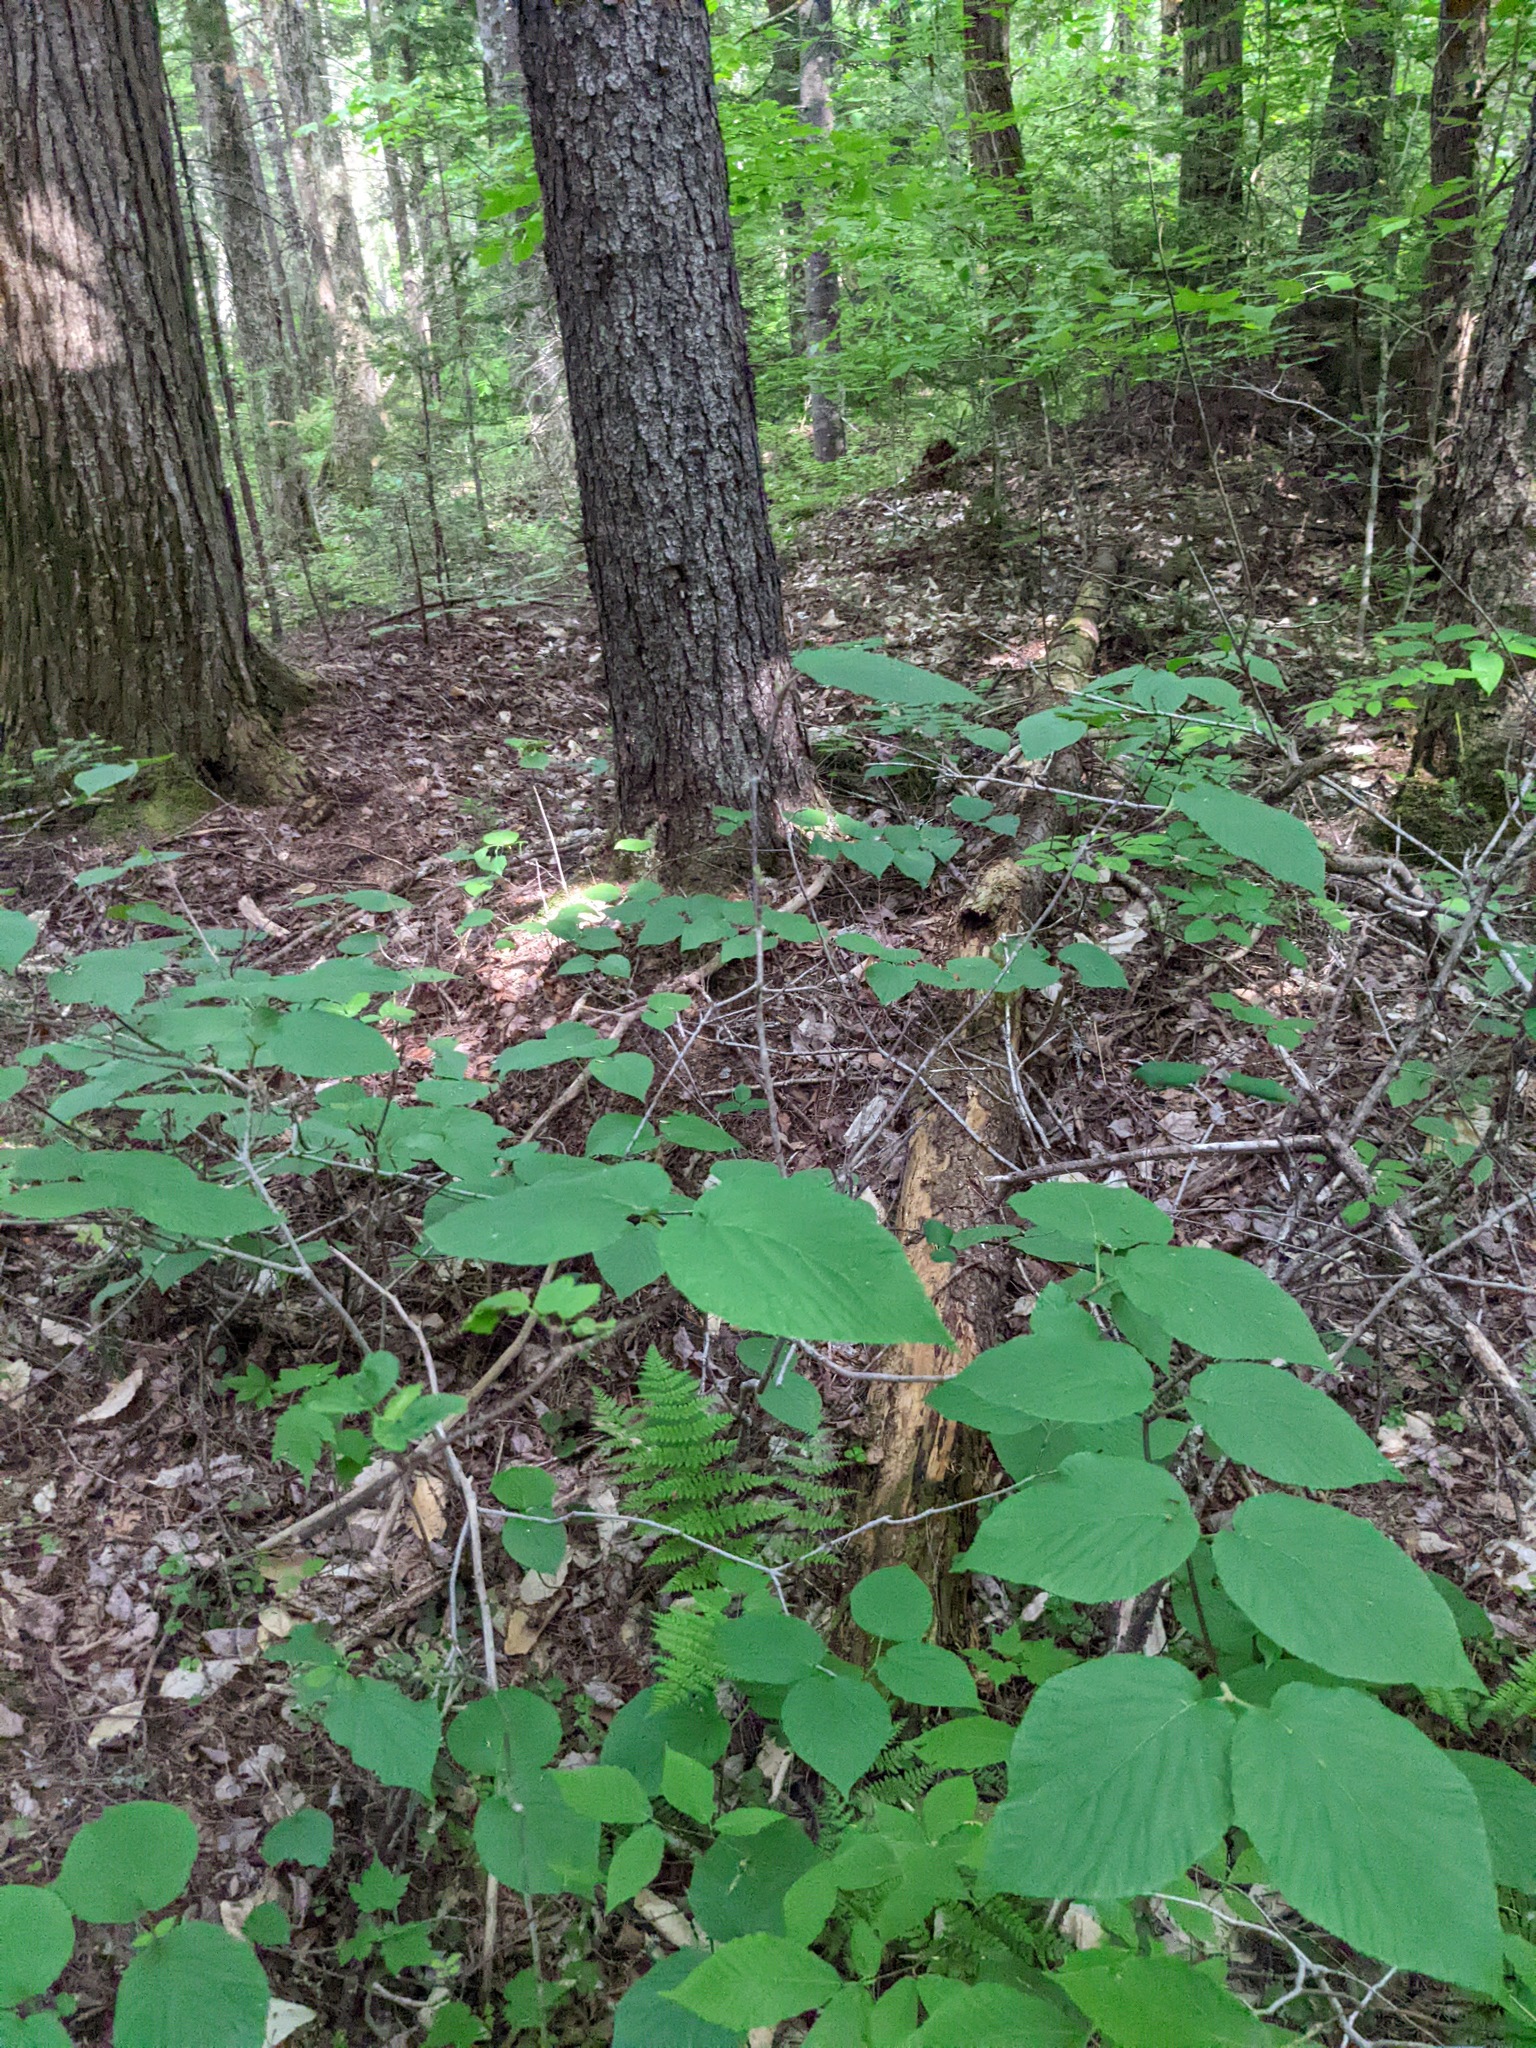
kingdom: Plantae
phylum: Tracheophyta
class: Magnoliopsida
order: Dipsacales
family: Viburnaceae
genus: Viburnum
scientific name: Viburnum lantanoides
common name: Hobblebush
